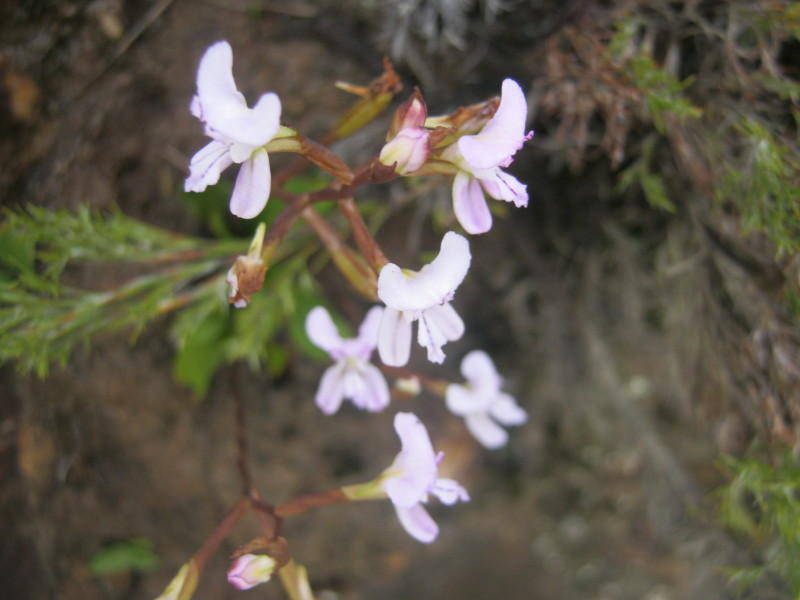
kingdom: Plantae
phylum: Tracheophyta
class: Liliopsida
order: Asparagales
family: Orchidaceae
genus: Disa
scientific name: Disa sagittalis
